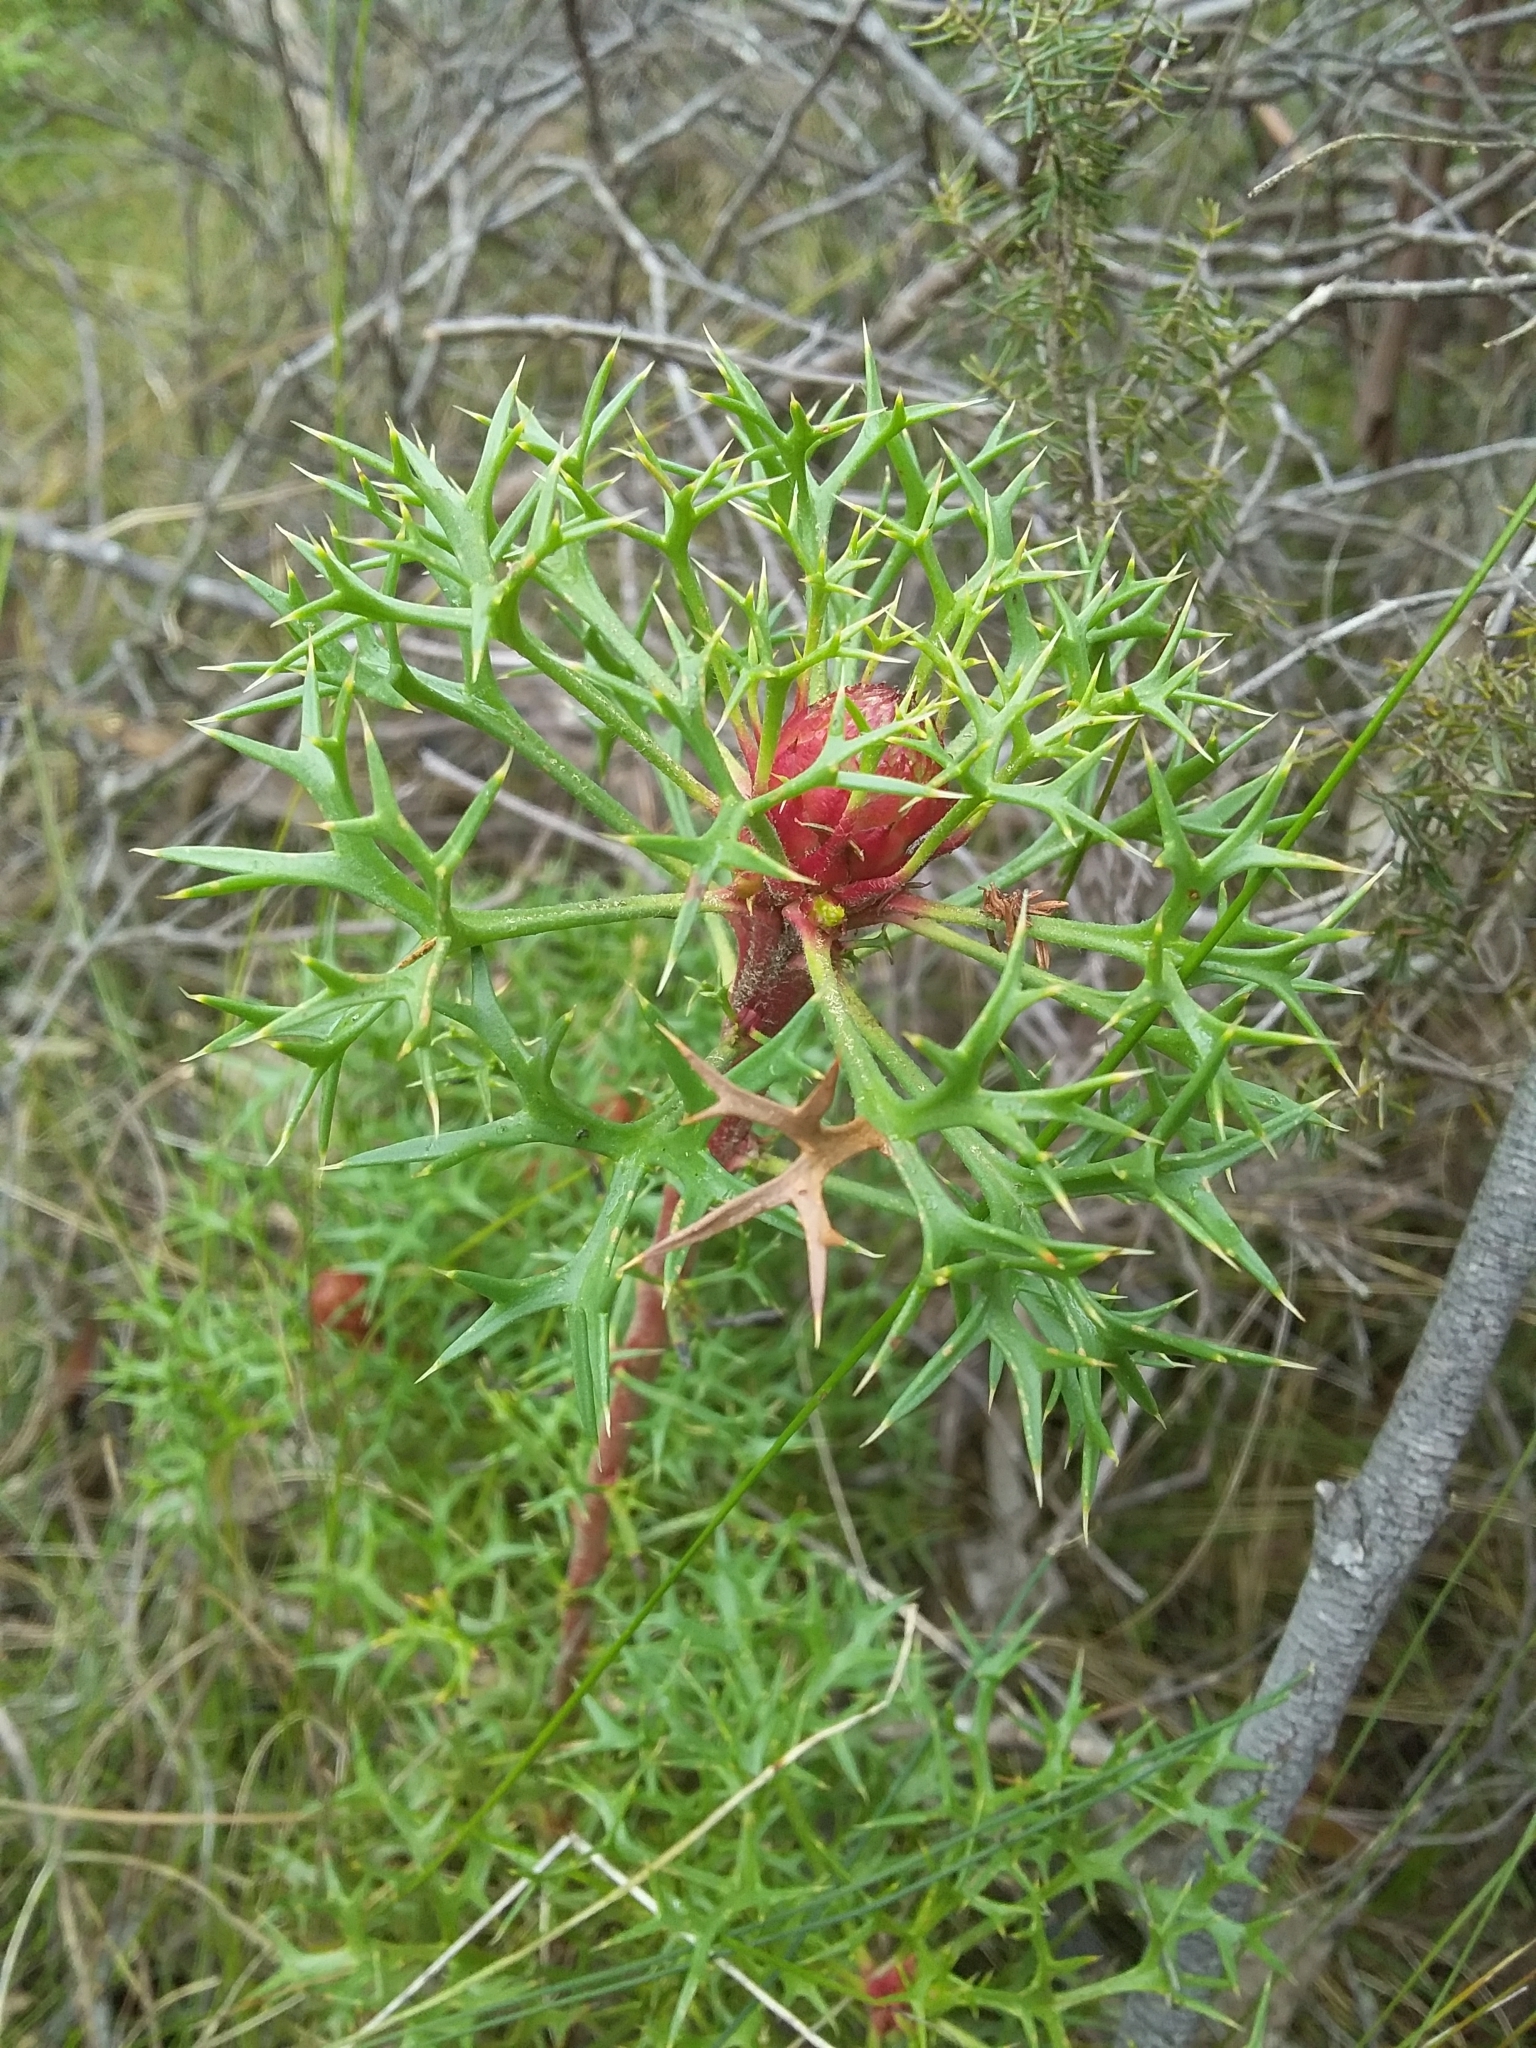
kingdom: Plantae
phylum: Tracheophyta
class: Magnoliopsida
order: Proteales
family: Proteaceae
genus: Isopogon
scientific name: Isopogon ceratophyllus
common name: Horny cone-bush
